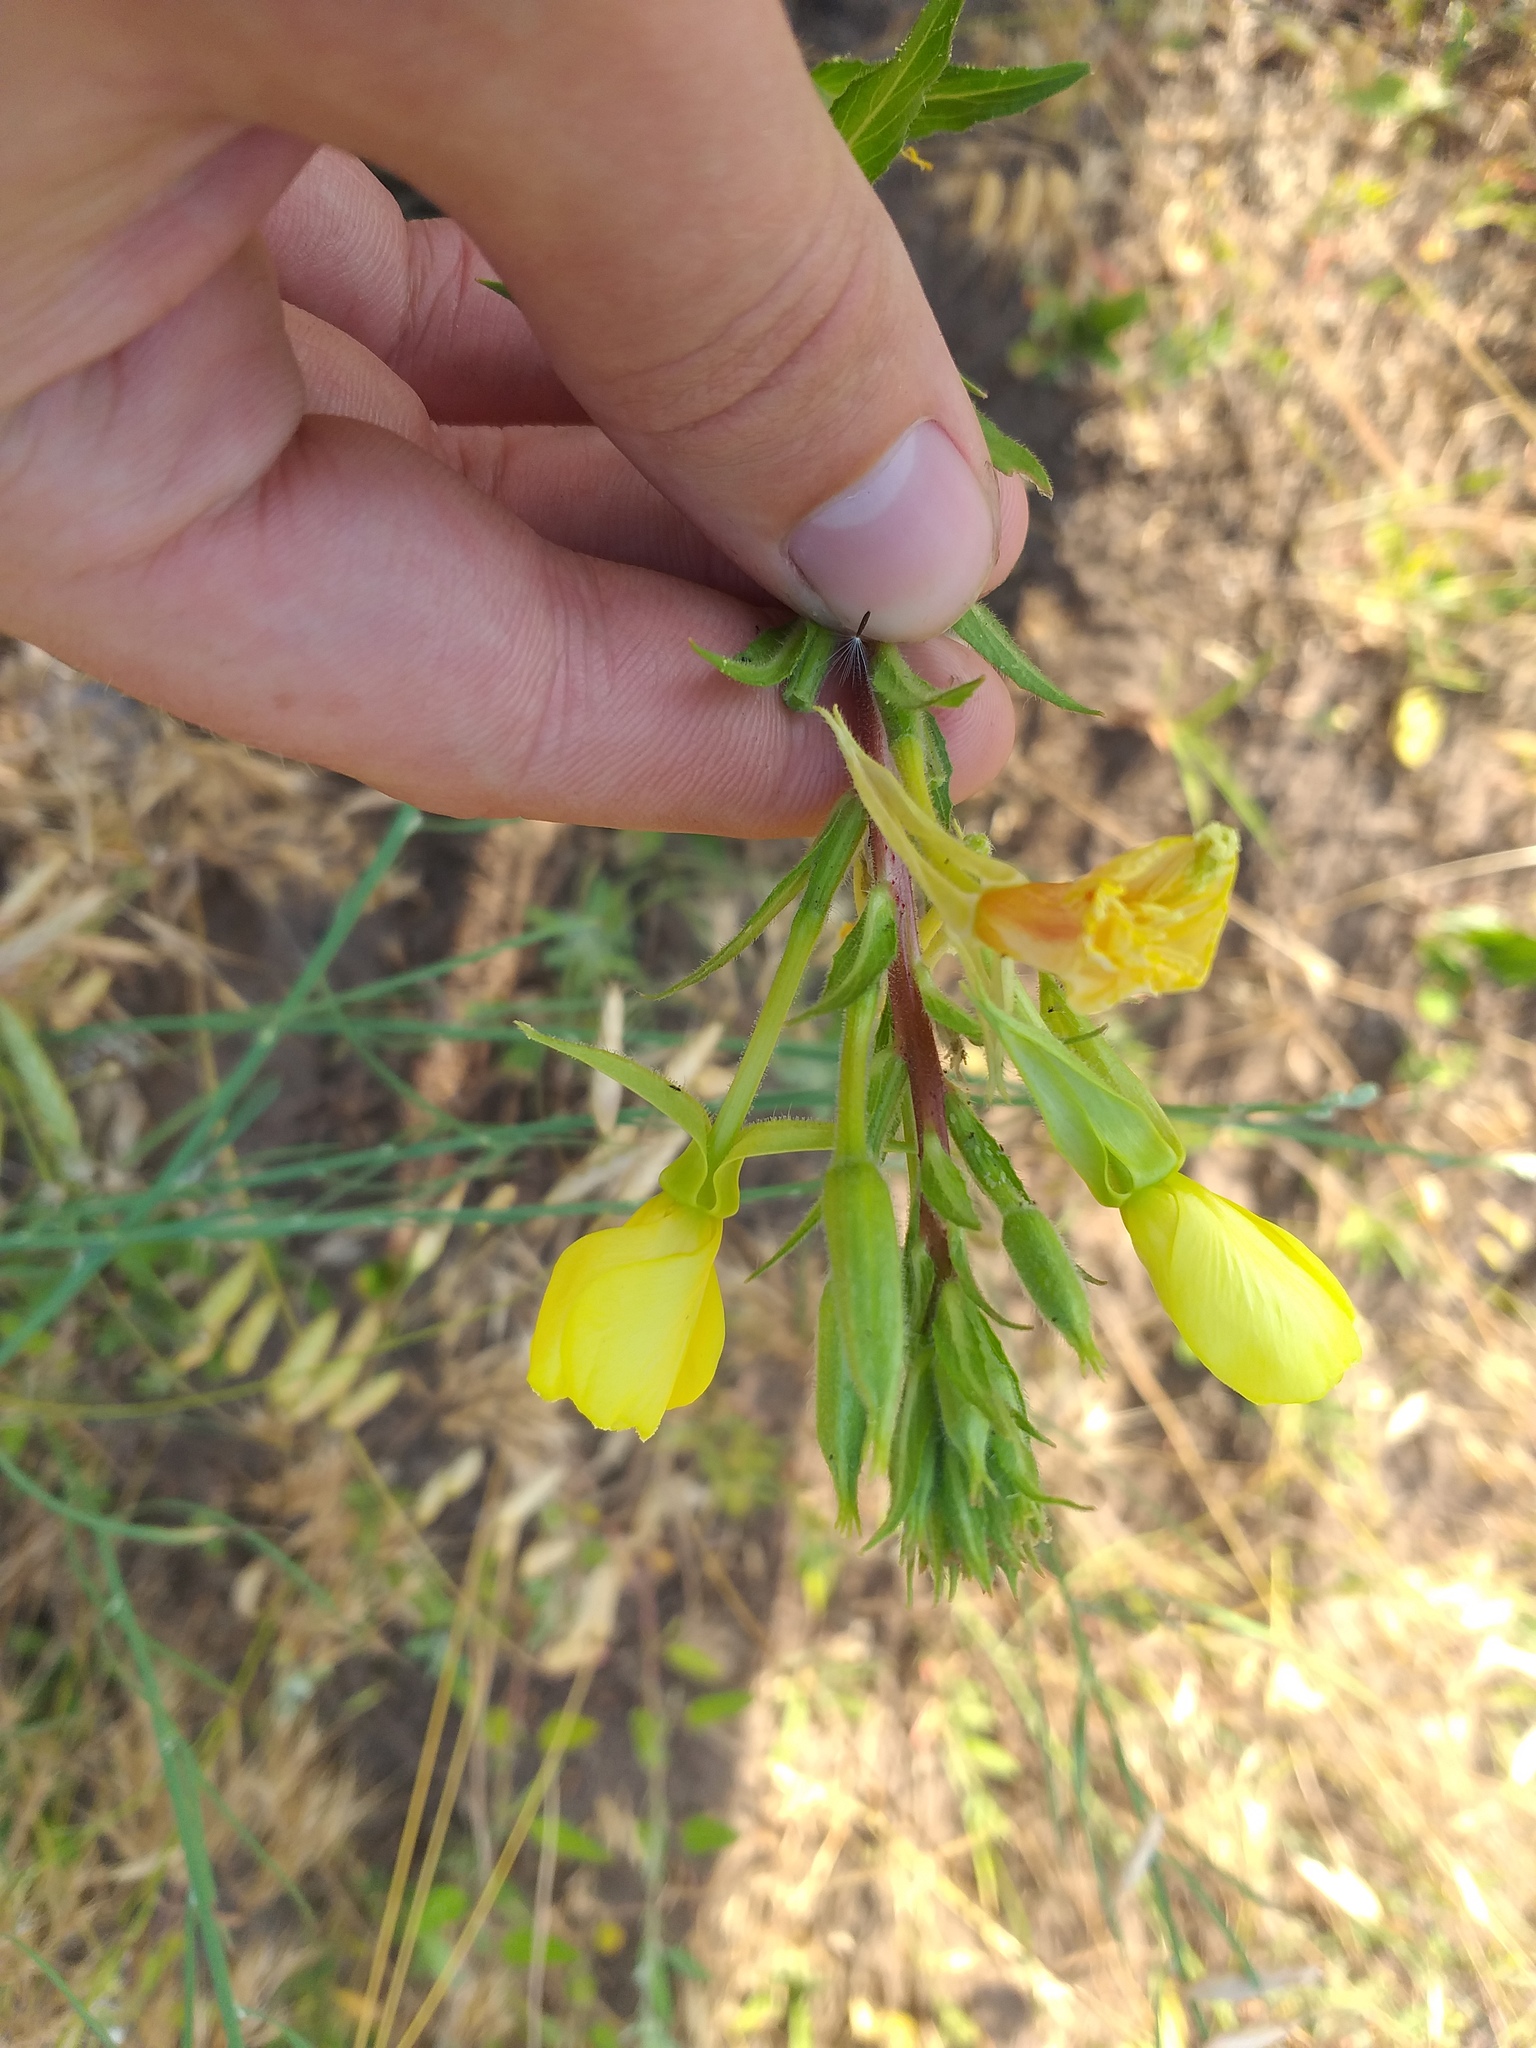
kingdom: Plantae
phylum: Tracheophyta
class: Magnoliopsida
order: Myrtales
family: Onagraceae
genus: Oenothera
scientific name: Oenothera rubricaulis
